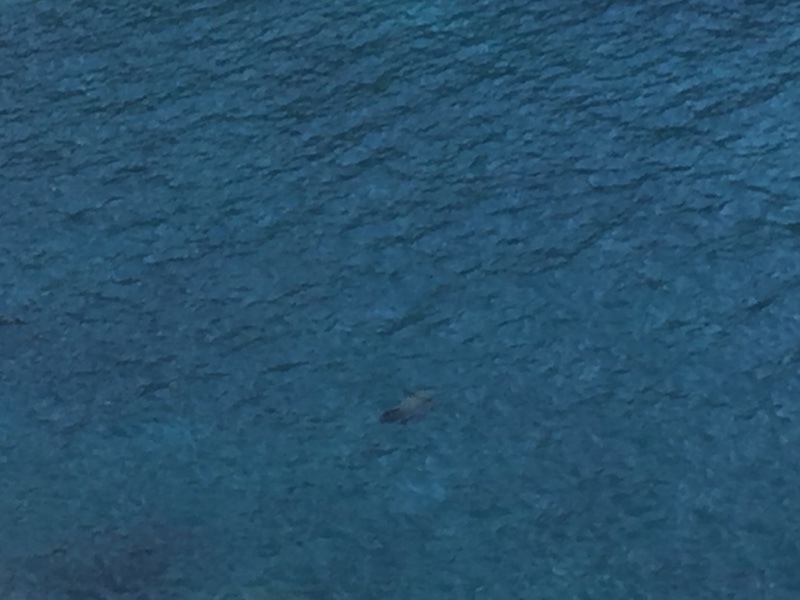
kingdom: Animalia
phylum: Chordata
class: Testudines
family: Cheloniidae
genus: Chelonia
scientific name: Chelonia mydas
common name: Green turtle
